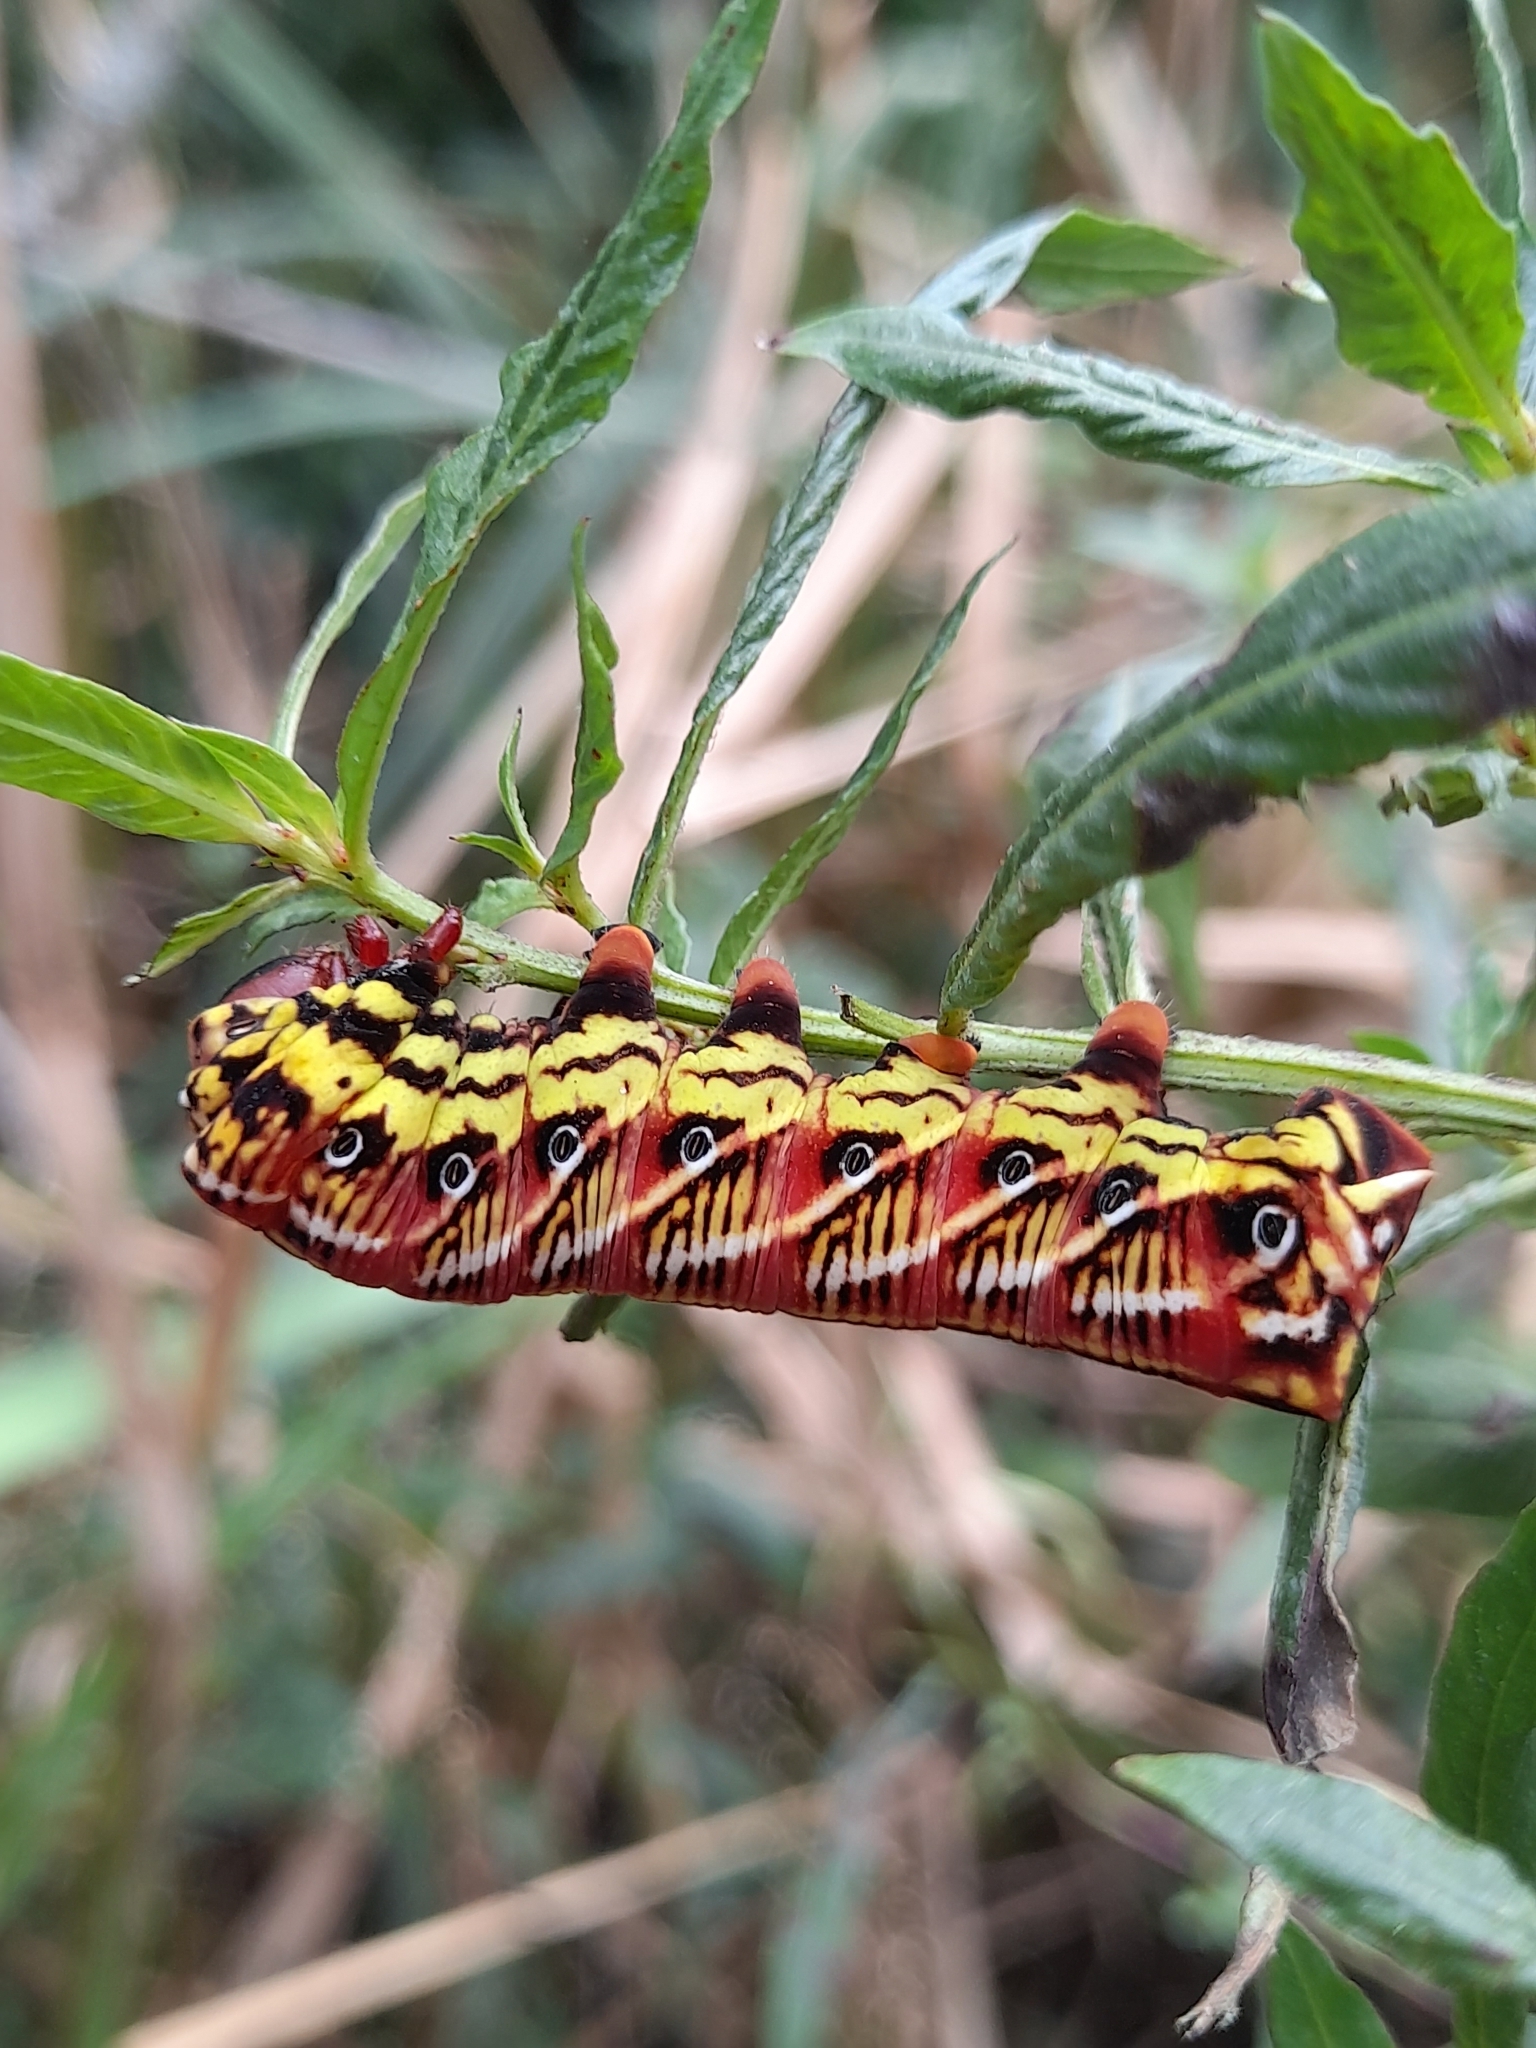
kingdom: Animalia
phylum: Arthropoda
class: Insecta
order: Lepidoptera
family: Sphingidae
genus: Eumorpha
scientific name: Eumorpha fasciatus
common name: Banded sphinx
